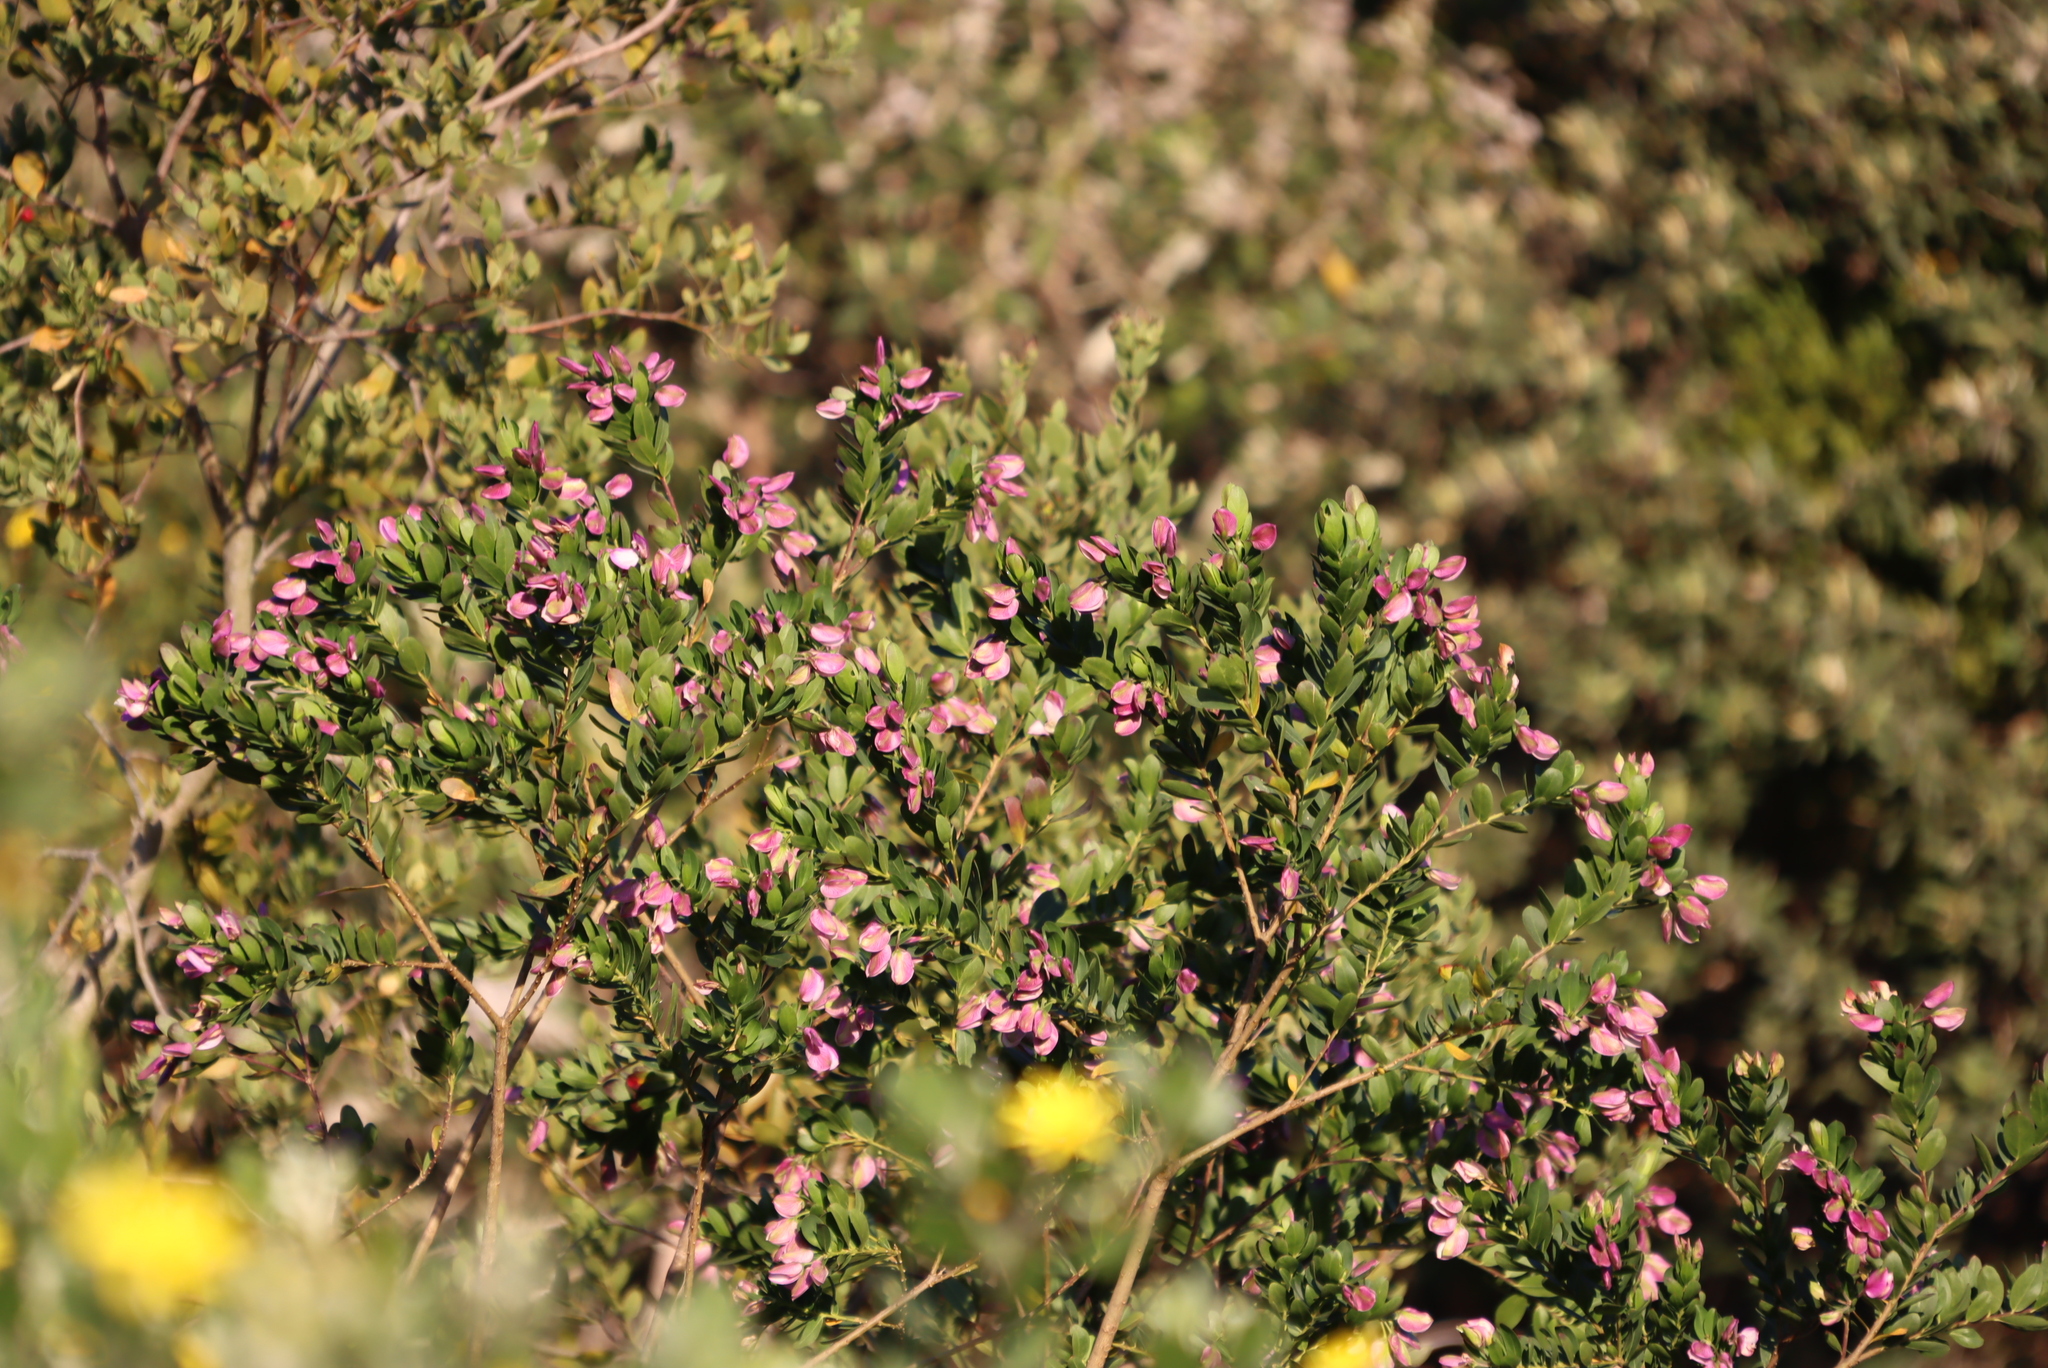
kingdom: Plantae
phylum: Tracheophyta
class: Magnoliopsida
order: Fabales
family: Polygalaceae
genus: Polygala
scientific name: Polygala myrtifolia
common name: Myrtle-leaf milkwort
